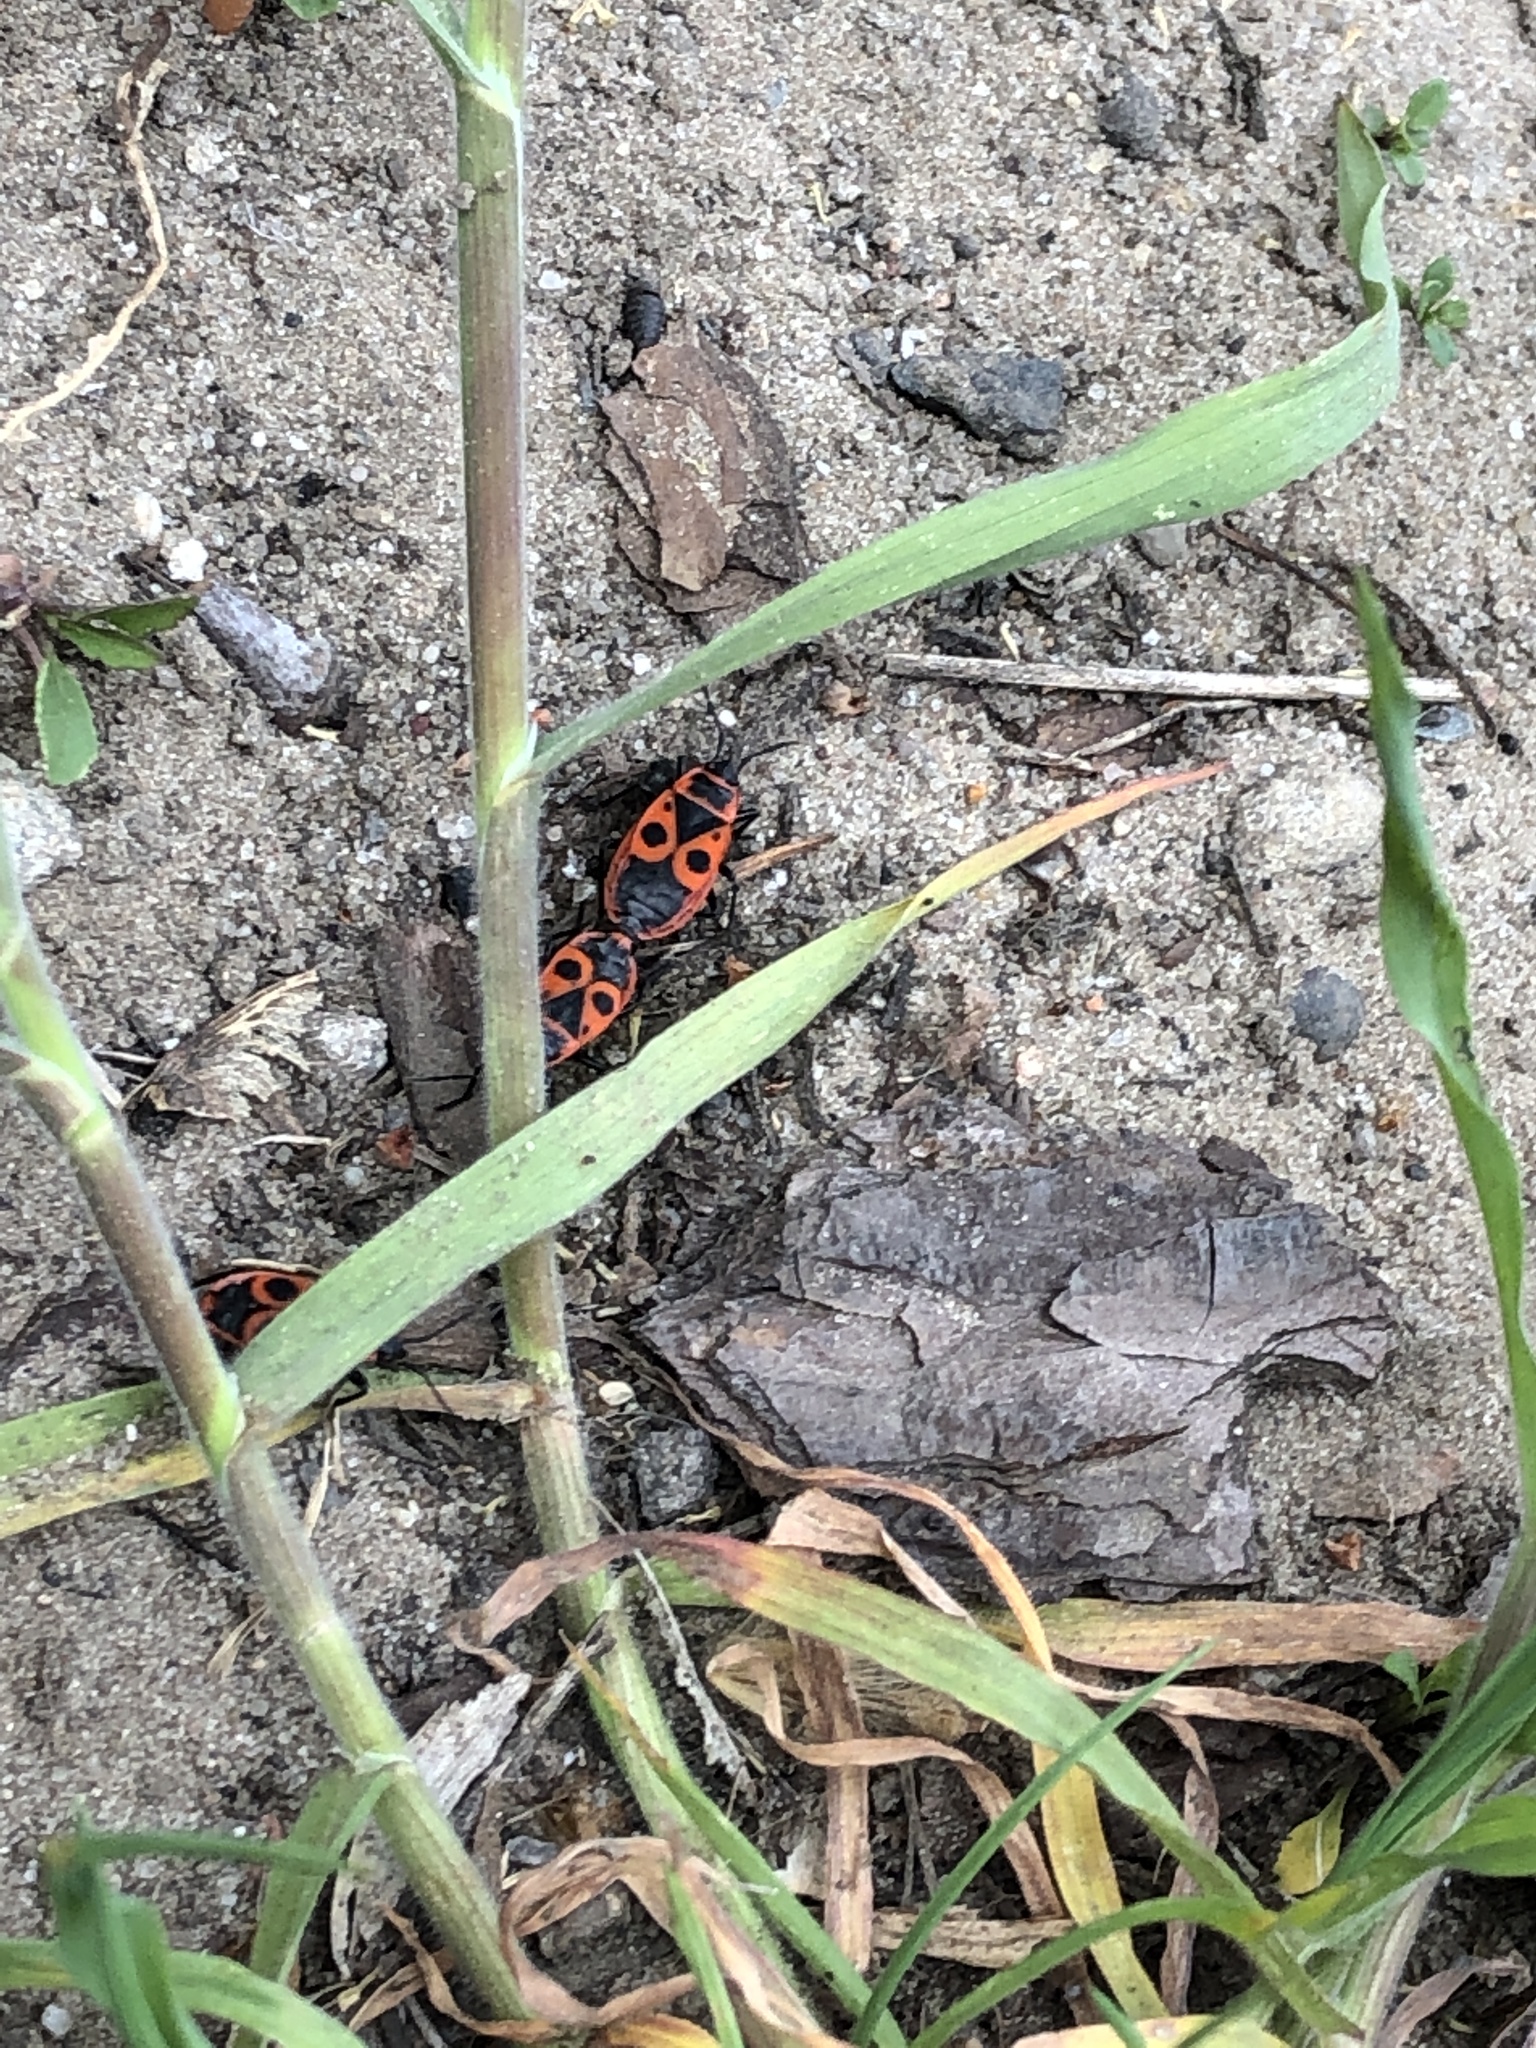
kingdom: Animalia
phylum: Arthropoda
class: Insecta
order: Hemiptera
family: Pyrrhocoridae
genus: Pyrrhocoris
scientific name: Pyrrhocoris apterus
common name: Firebug
